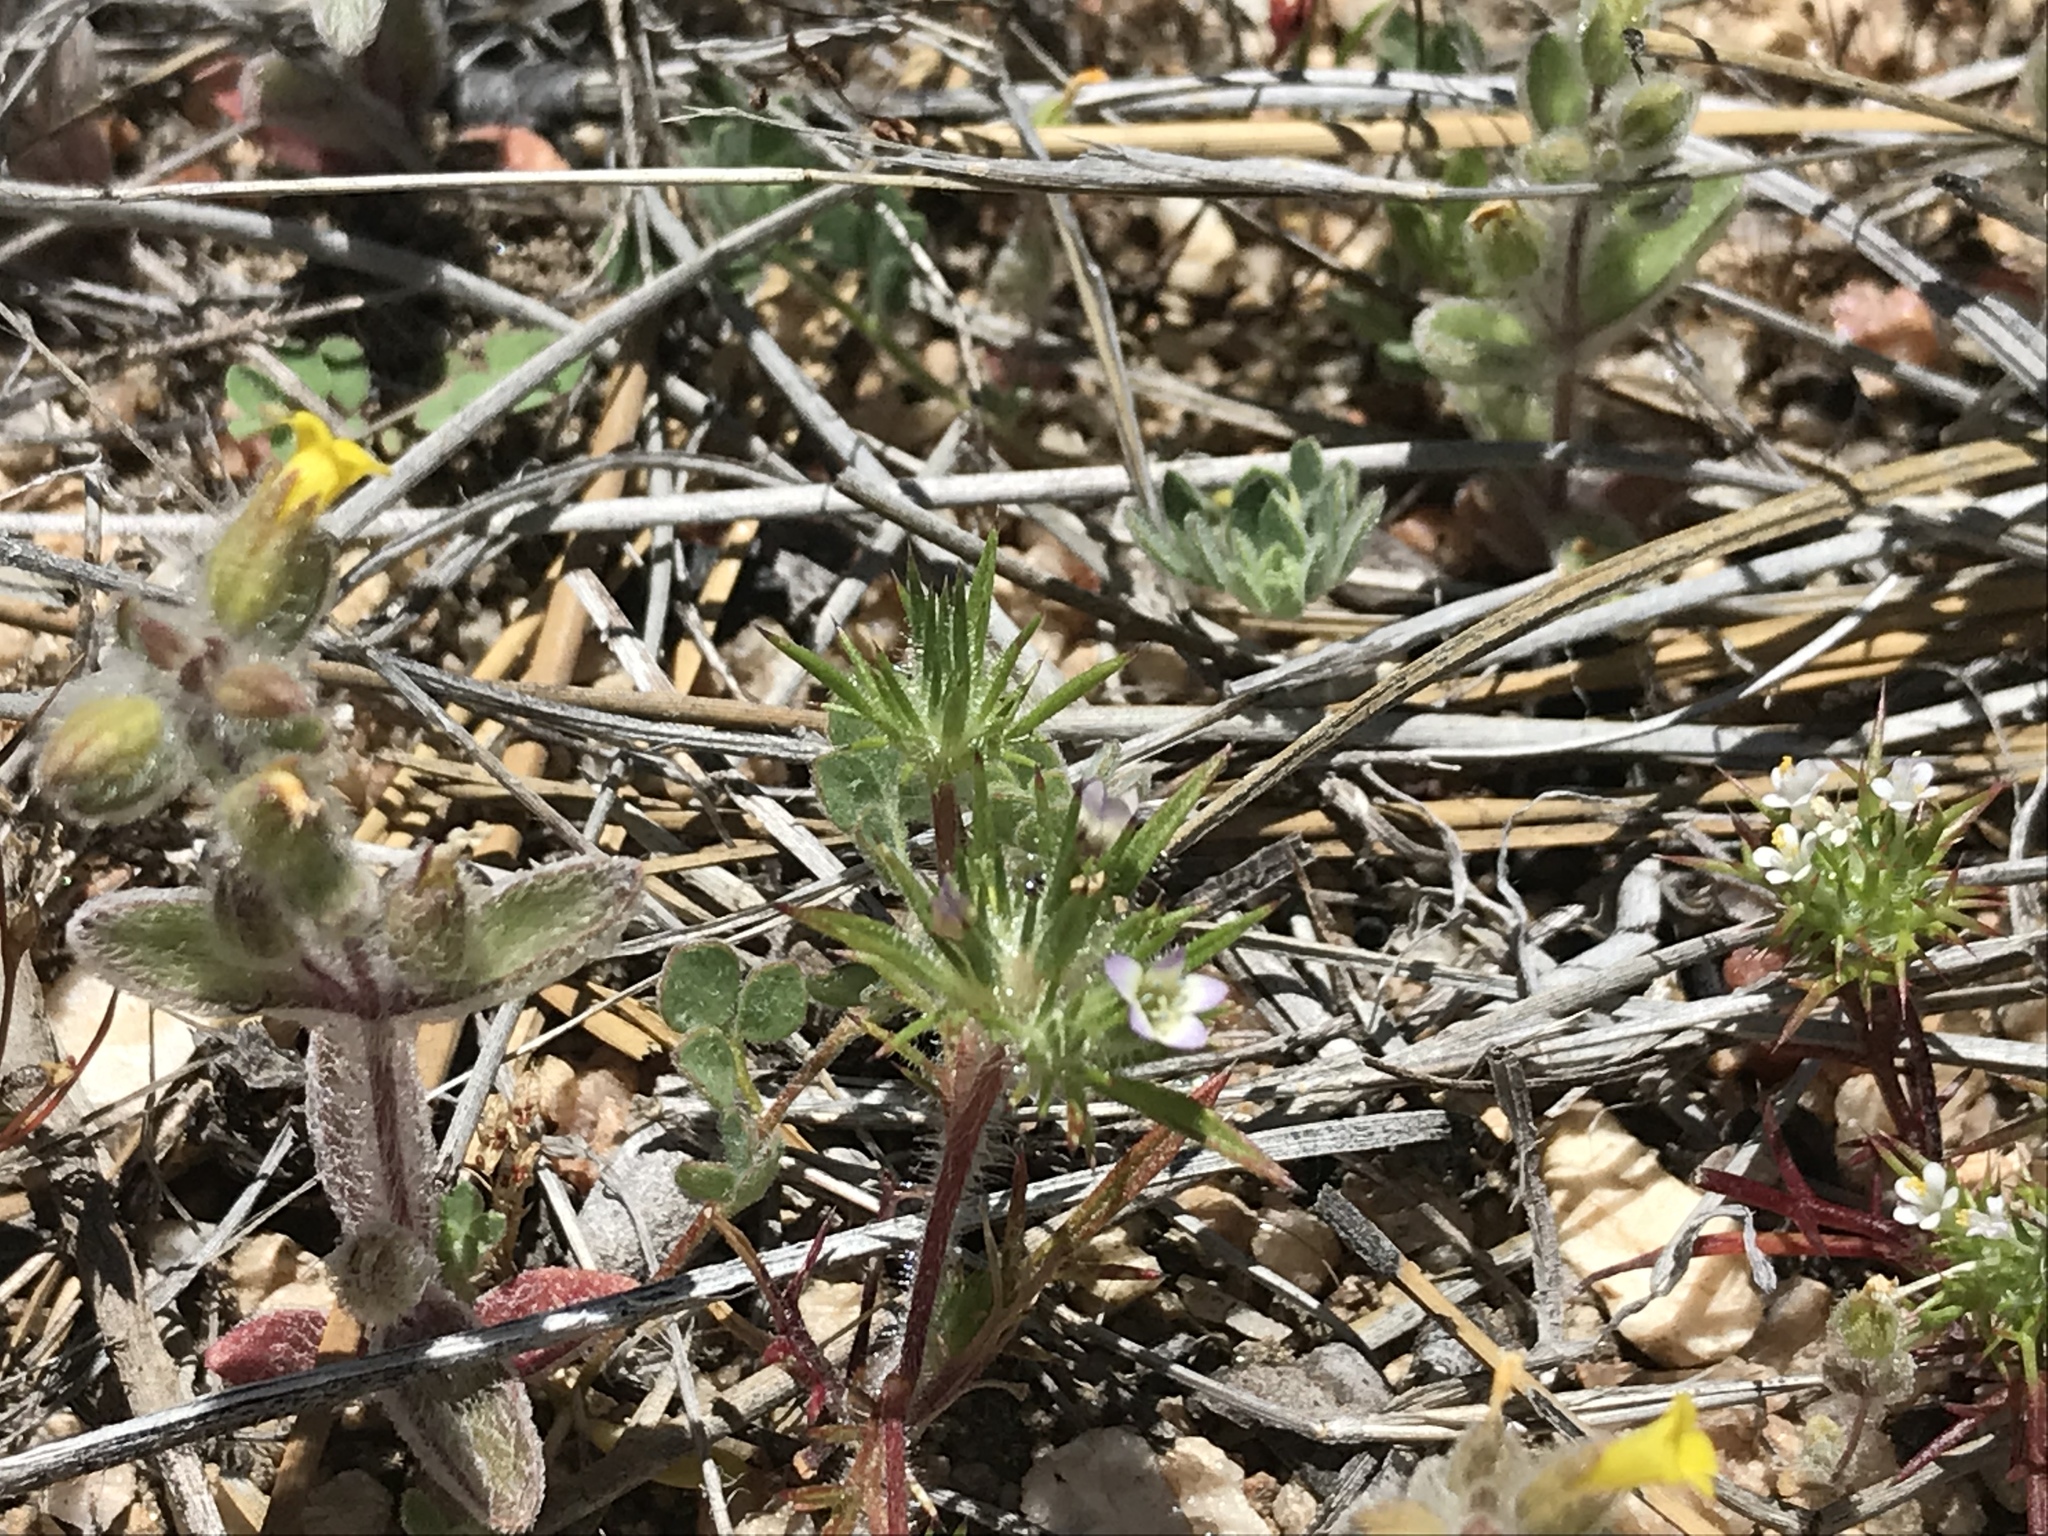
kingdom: Plantae
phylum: Tracheophyta
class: Magnoliopsida
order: Ericales
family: Polemoniaceae
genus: Navarretia
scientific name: Navarretia peninsularis
